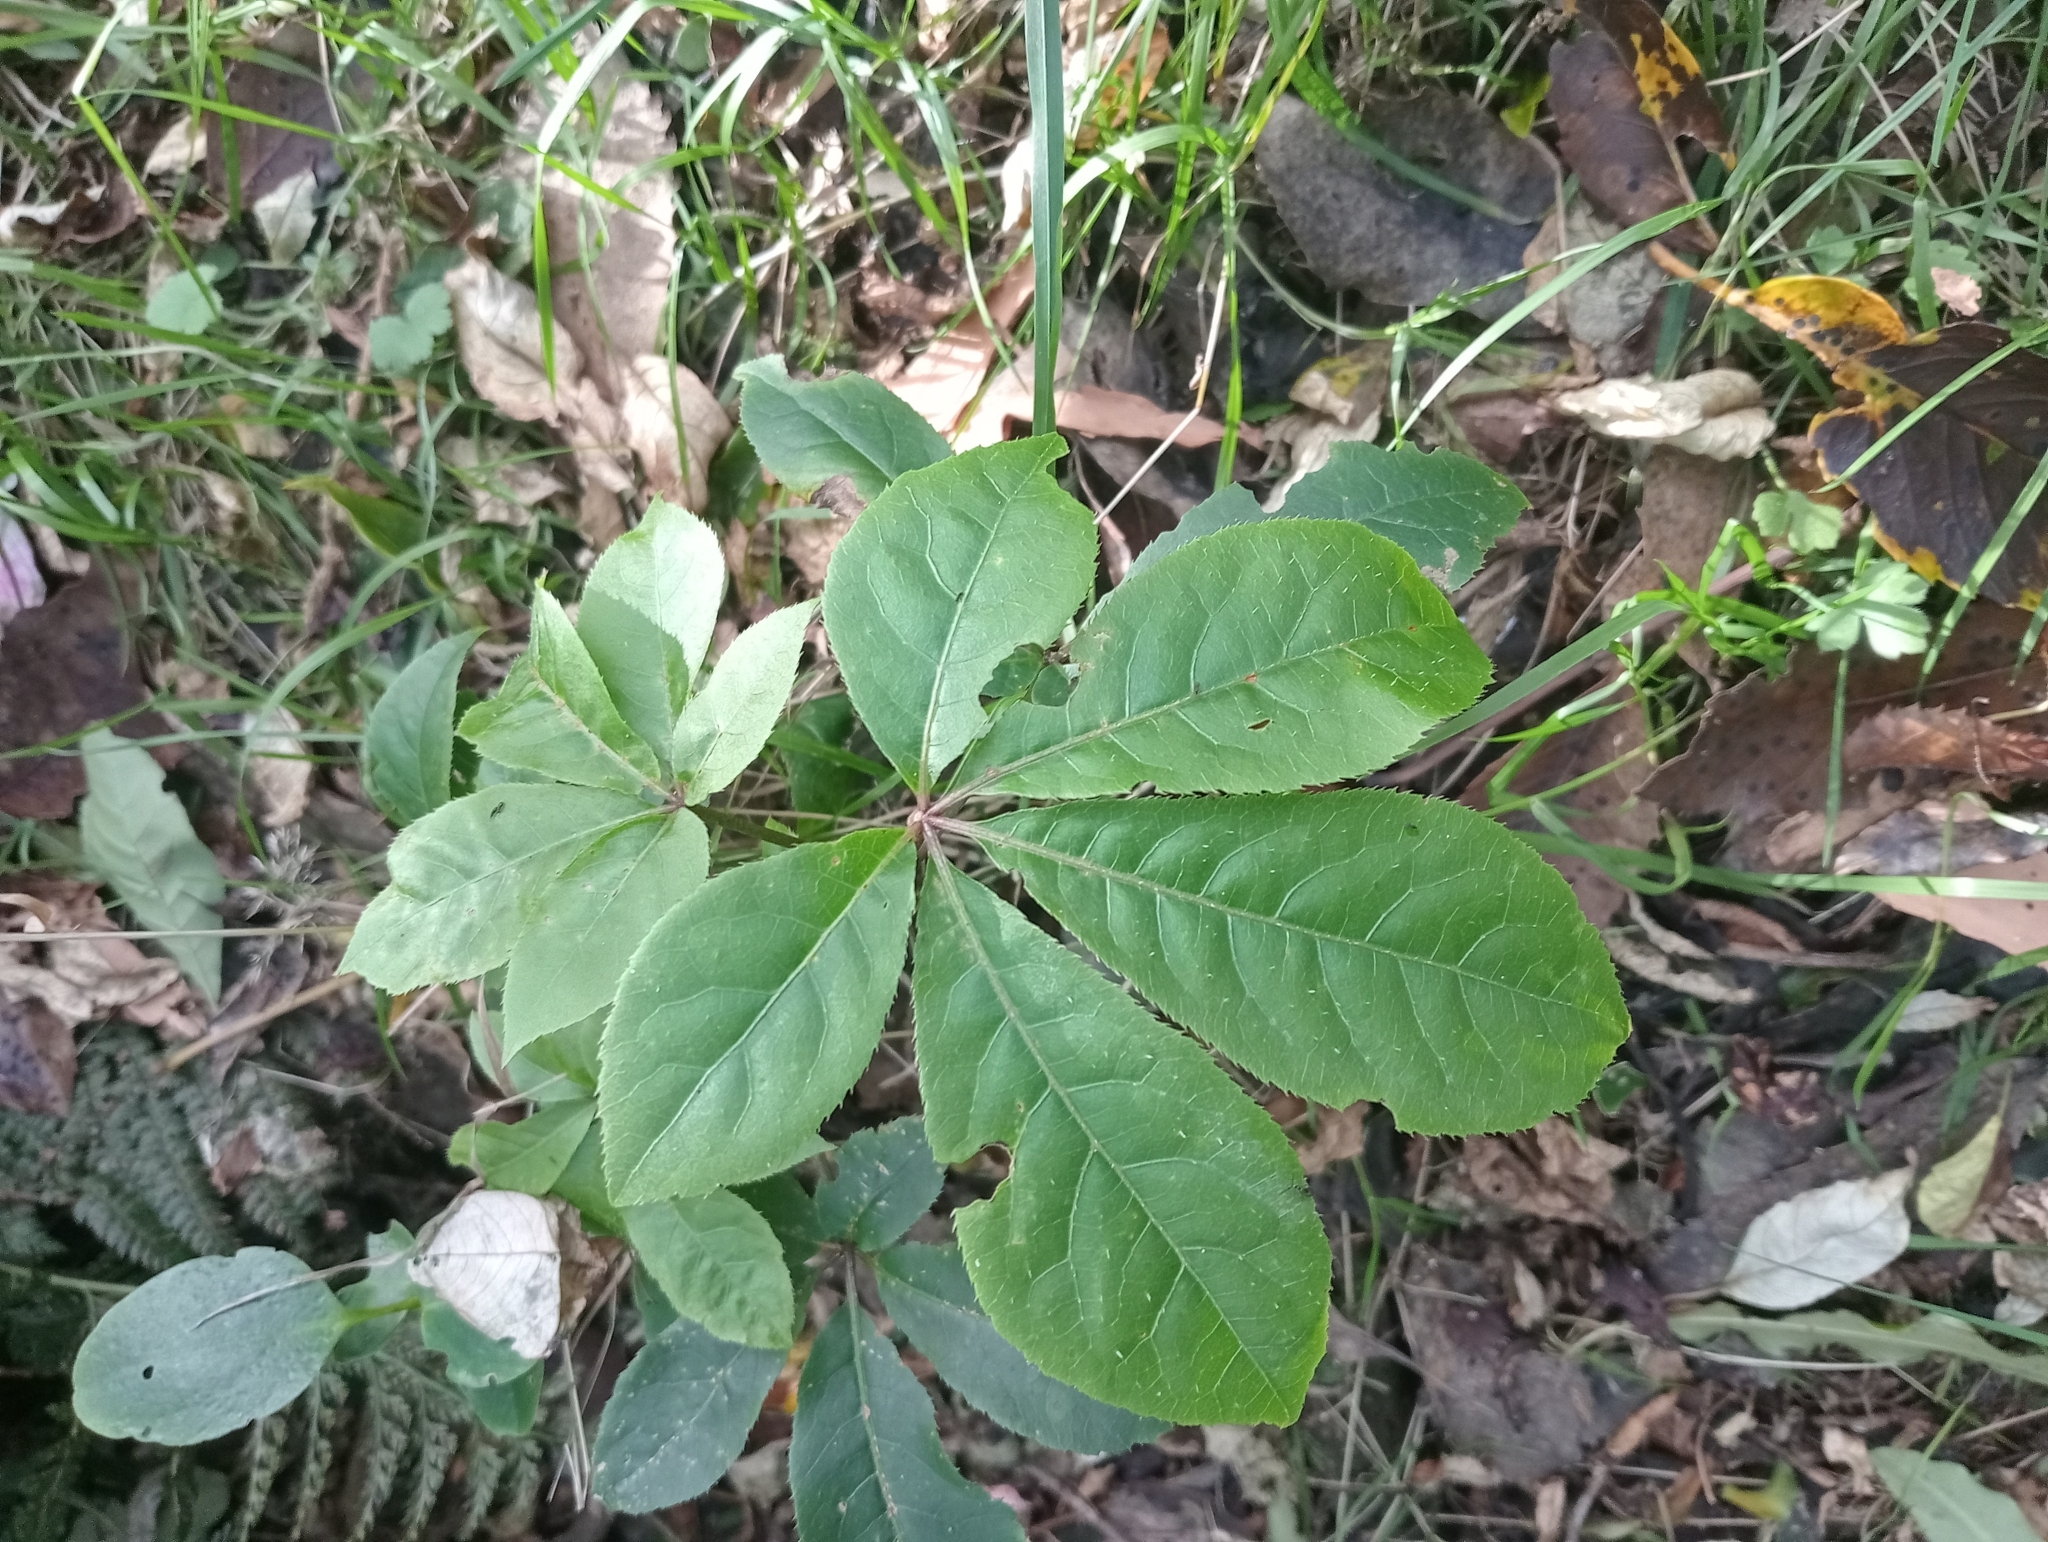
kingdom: Plantae
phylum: Tracheophyta
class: Magnoliopsida
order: Apiales
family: Araliaceae
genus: Schefflera
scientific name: Schefflera digitata
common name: Pate
